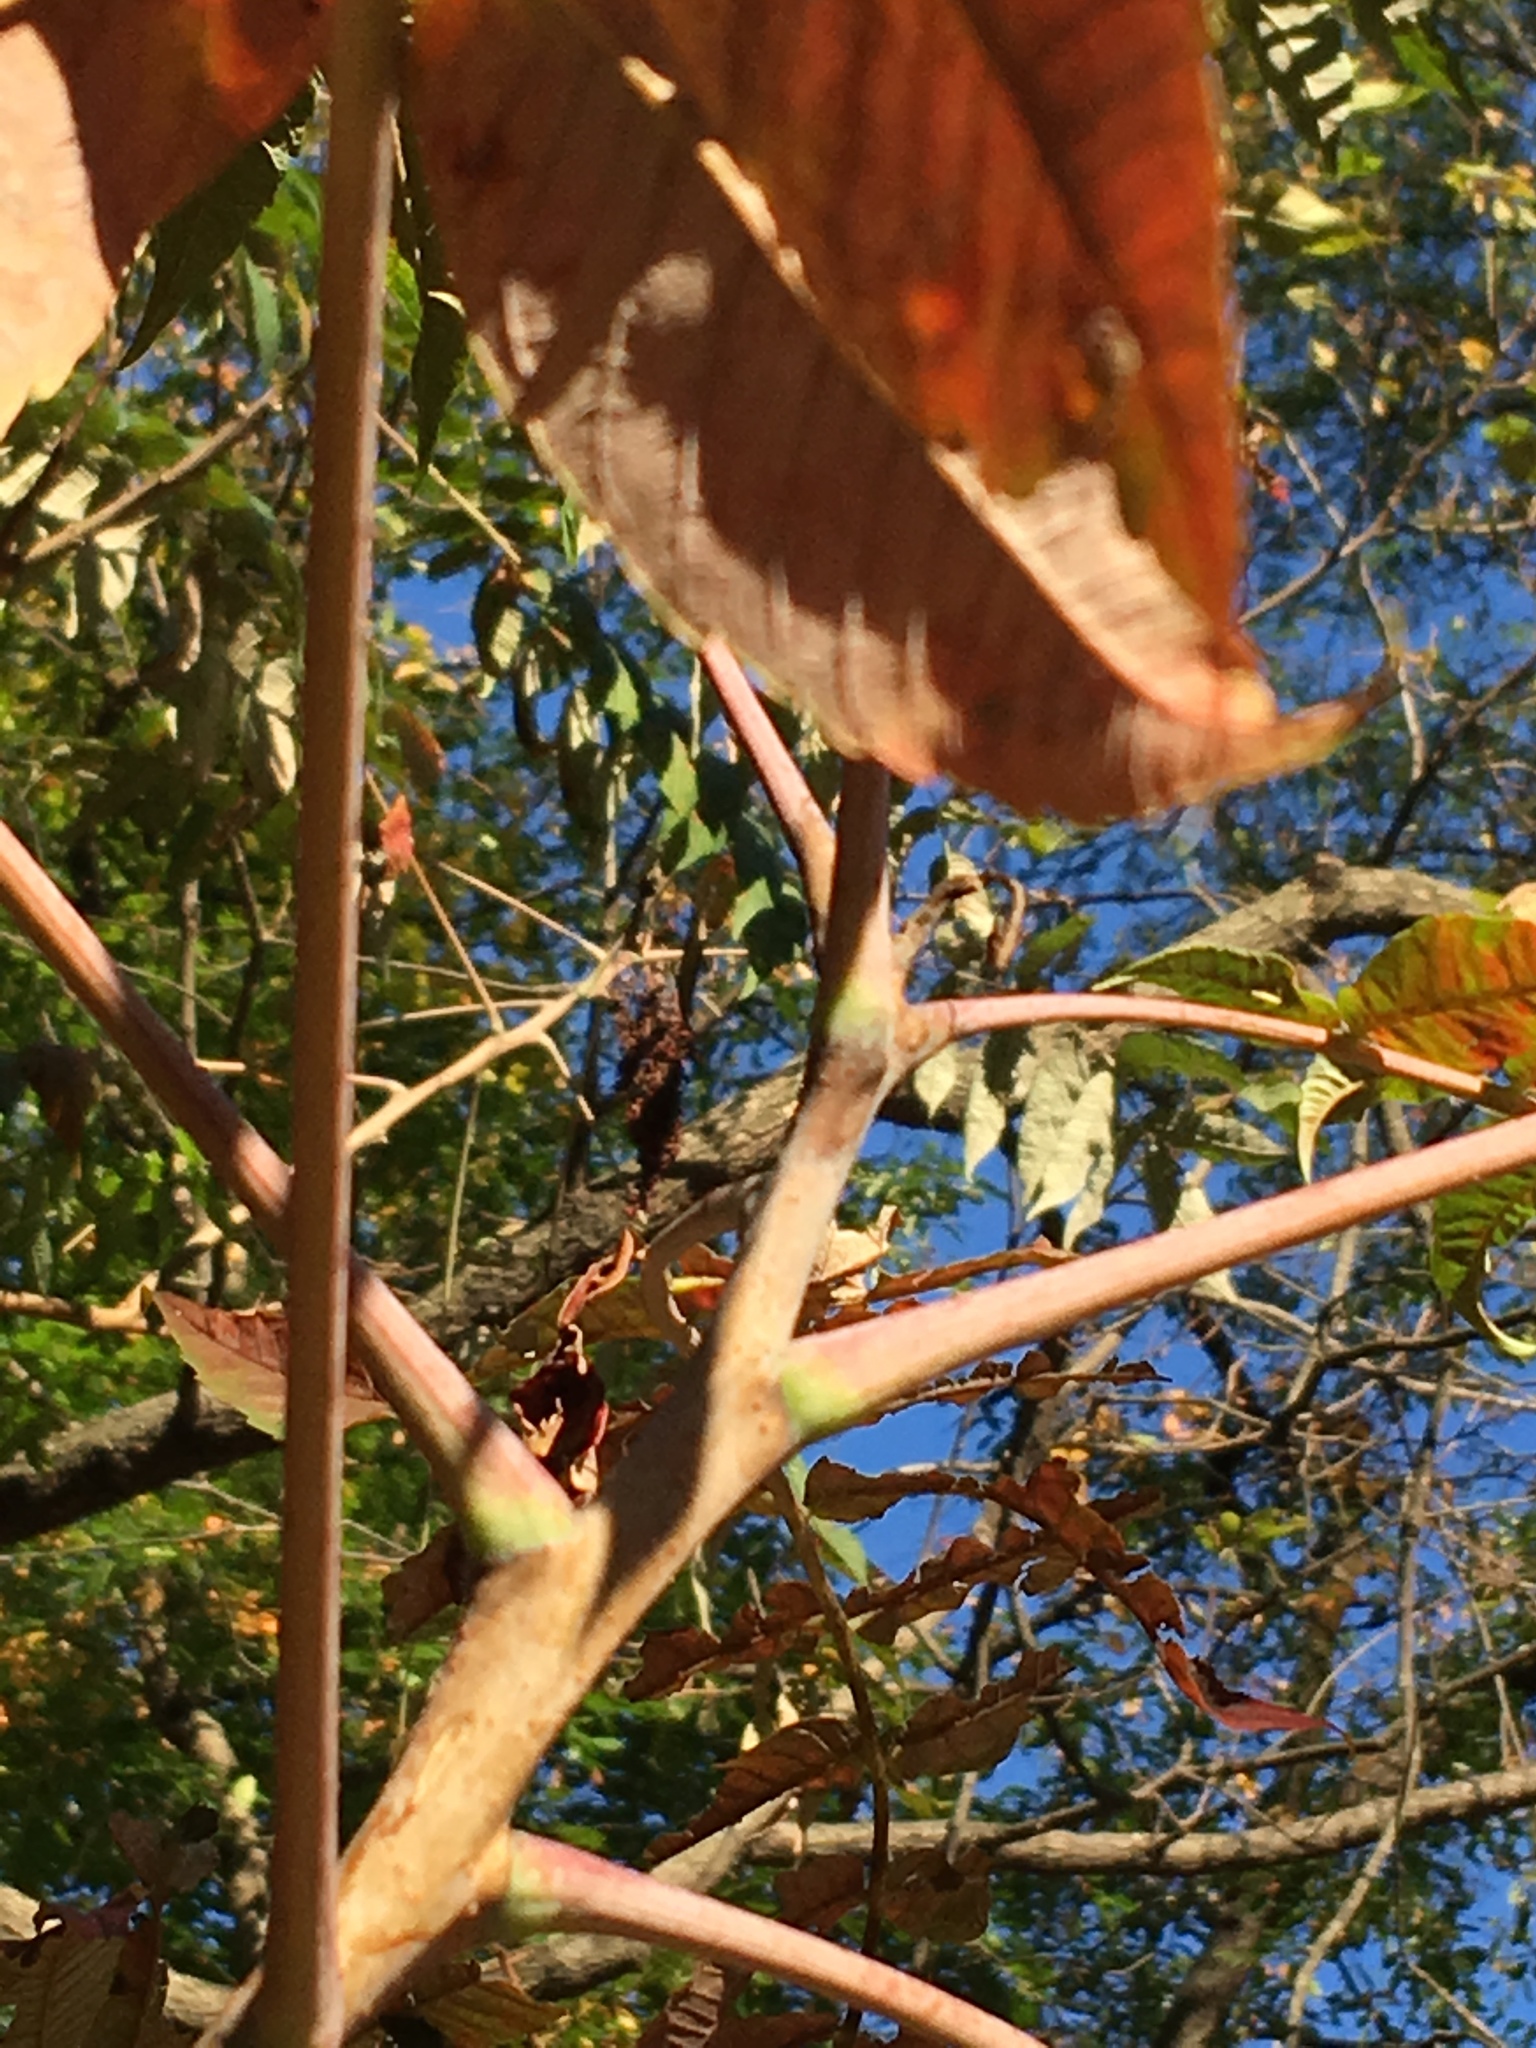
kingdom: Plantae
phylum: Tracheophyta
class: Magnoliopsida
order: Sapindales
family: Anacardiaceae
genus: Rhus
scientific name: Rhus glabra
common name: Scarlet sumac
